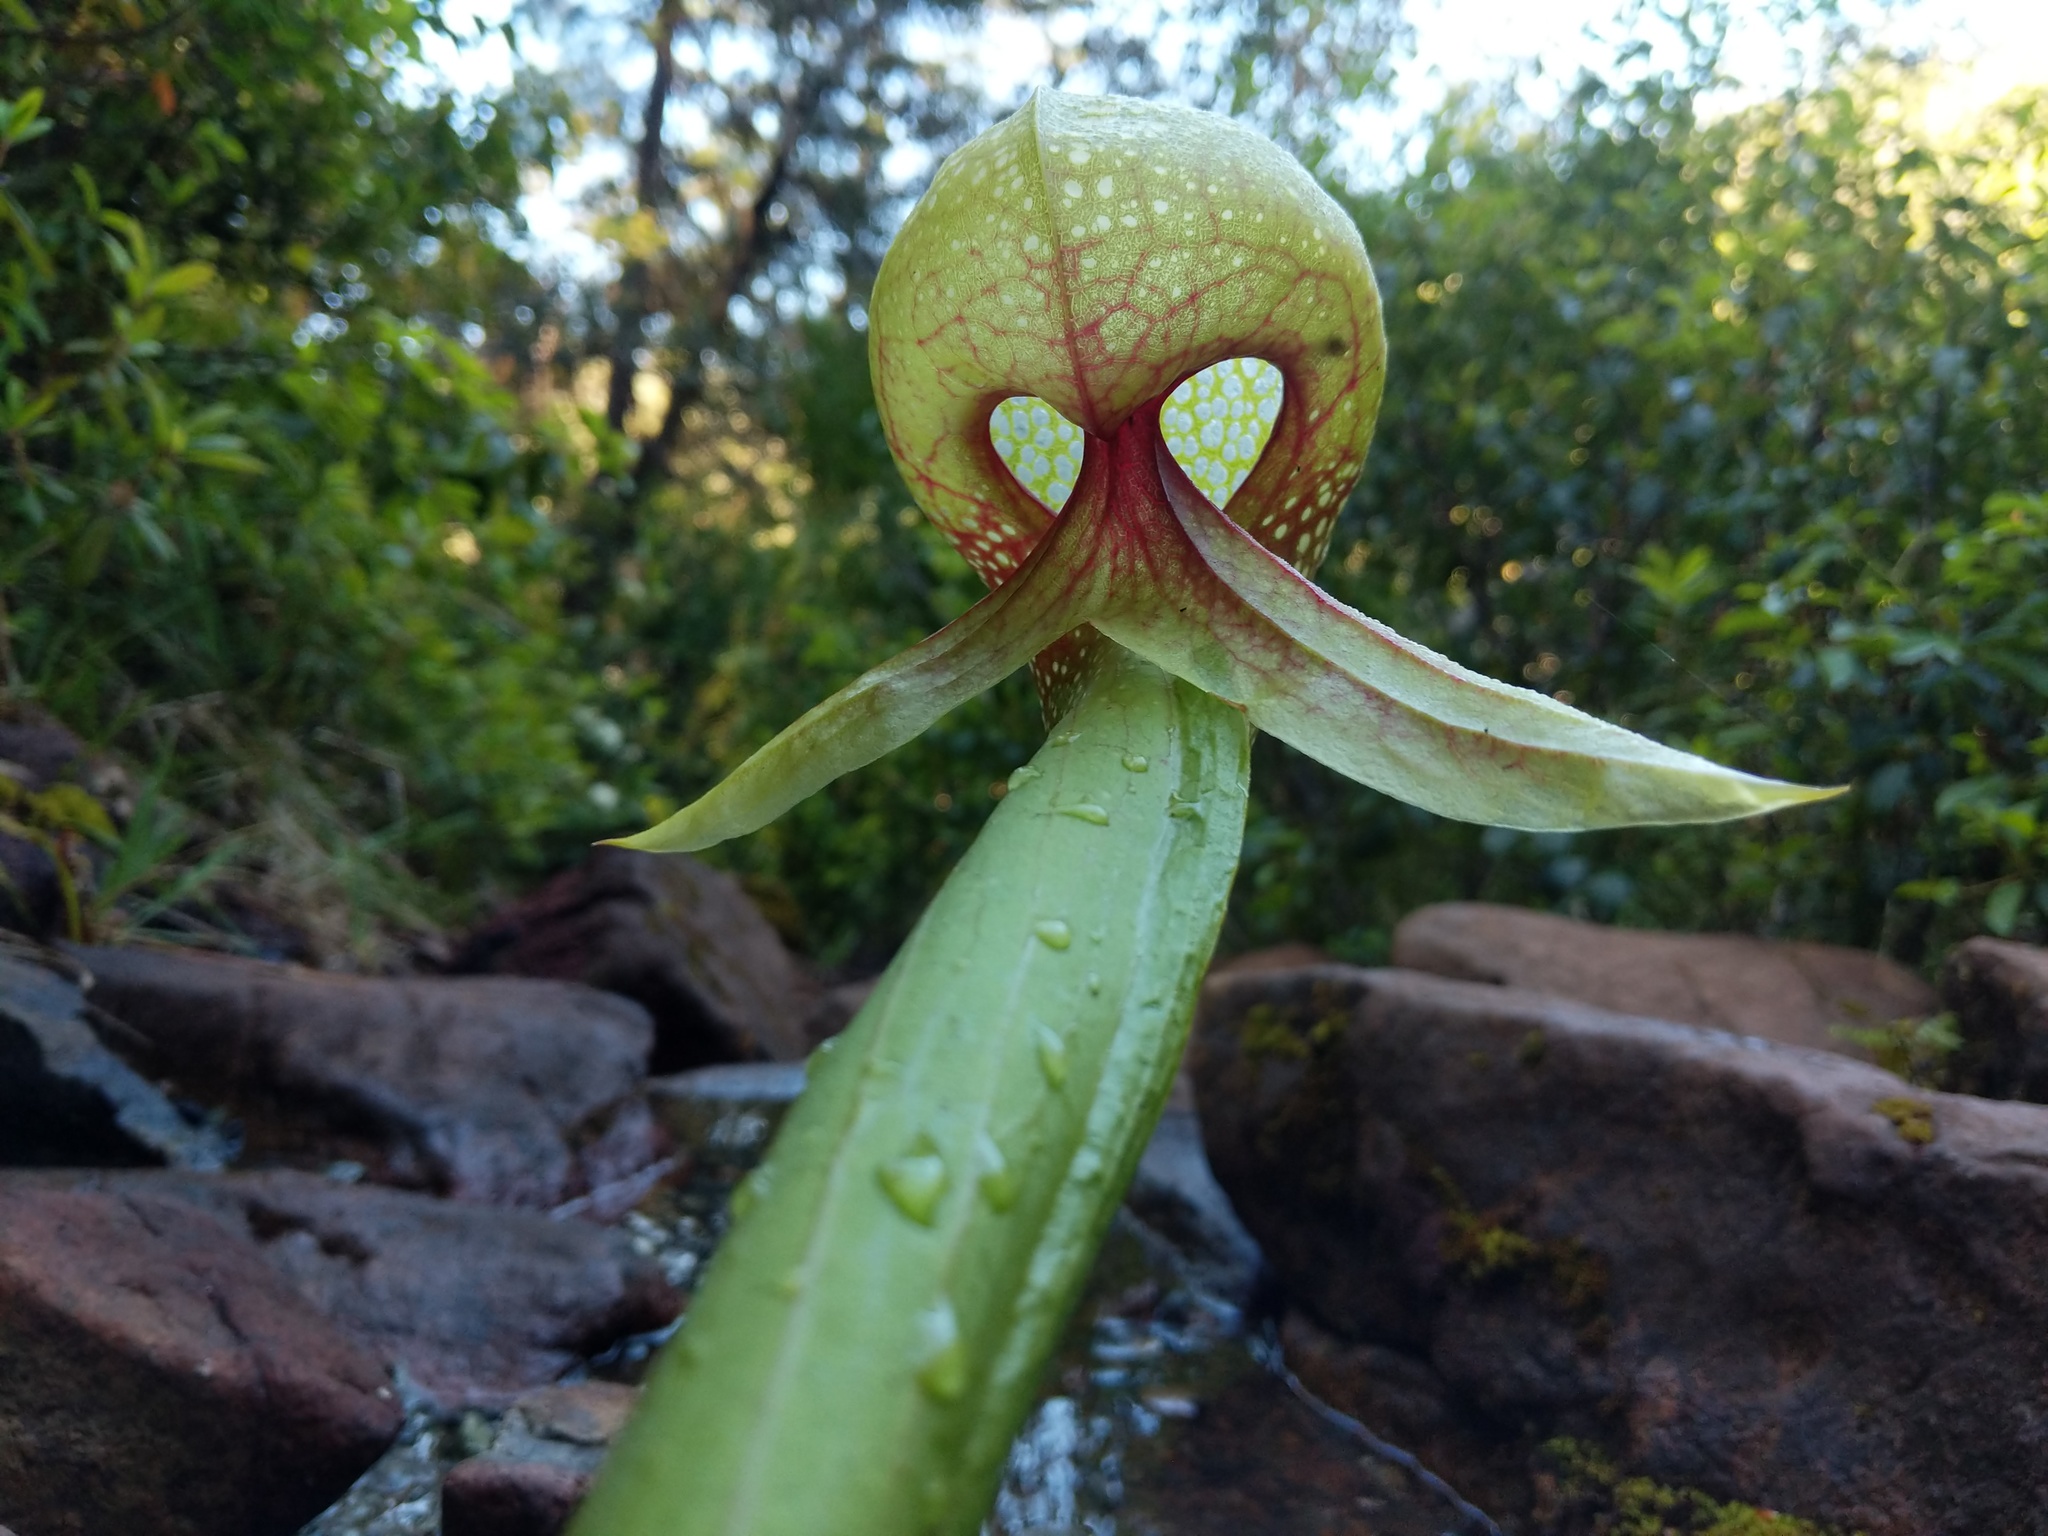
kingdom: Plantae
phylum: Tracheophyta
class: Magnoliopsida
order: Ericales
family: Sarraceniaceae
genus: Darlingtonia
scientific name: Darlingtonia californica
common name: California pitcher plant
